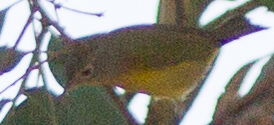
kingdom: Animalia
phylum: Chordata
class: Aves
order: Passeriformes
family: Parulidae
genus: Leiothlypis
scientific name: Leiothlypis ruficapilla
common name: Nashville warbler
